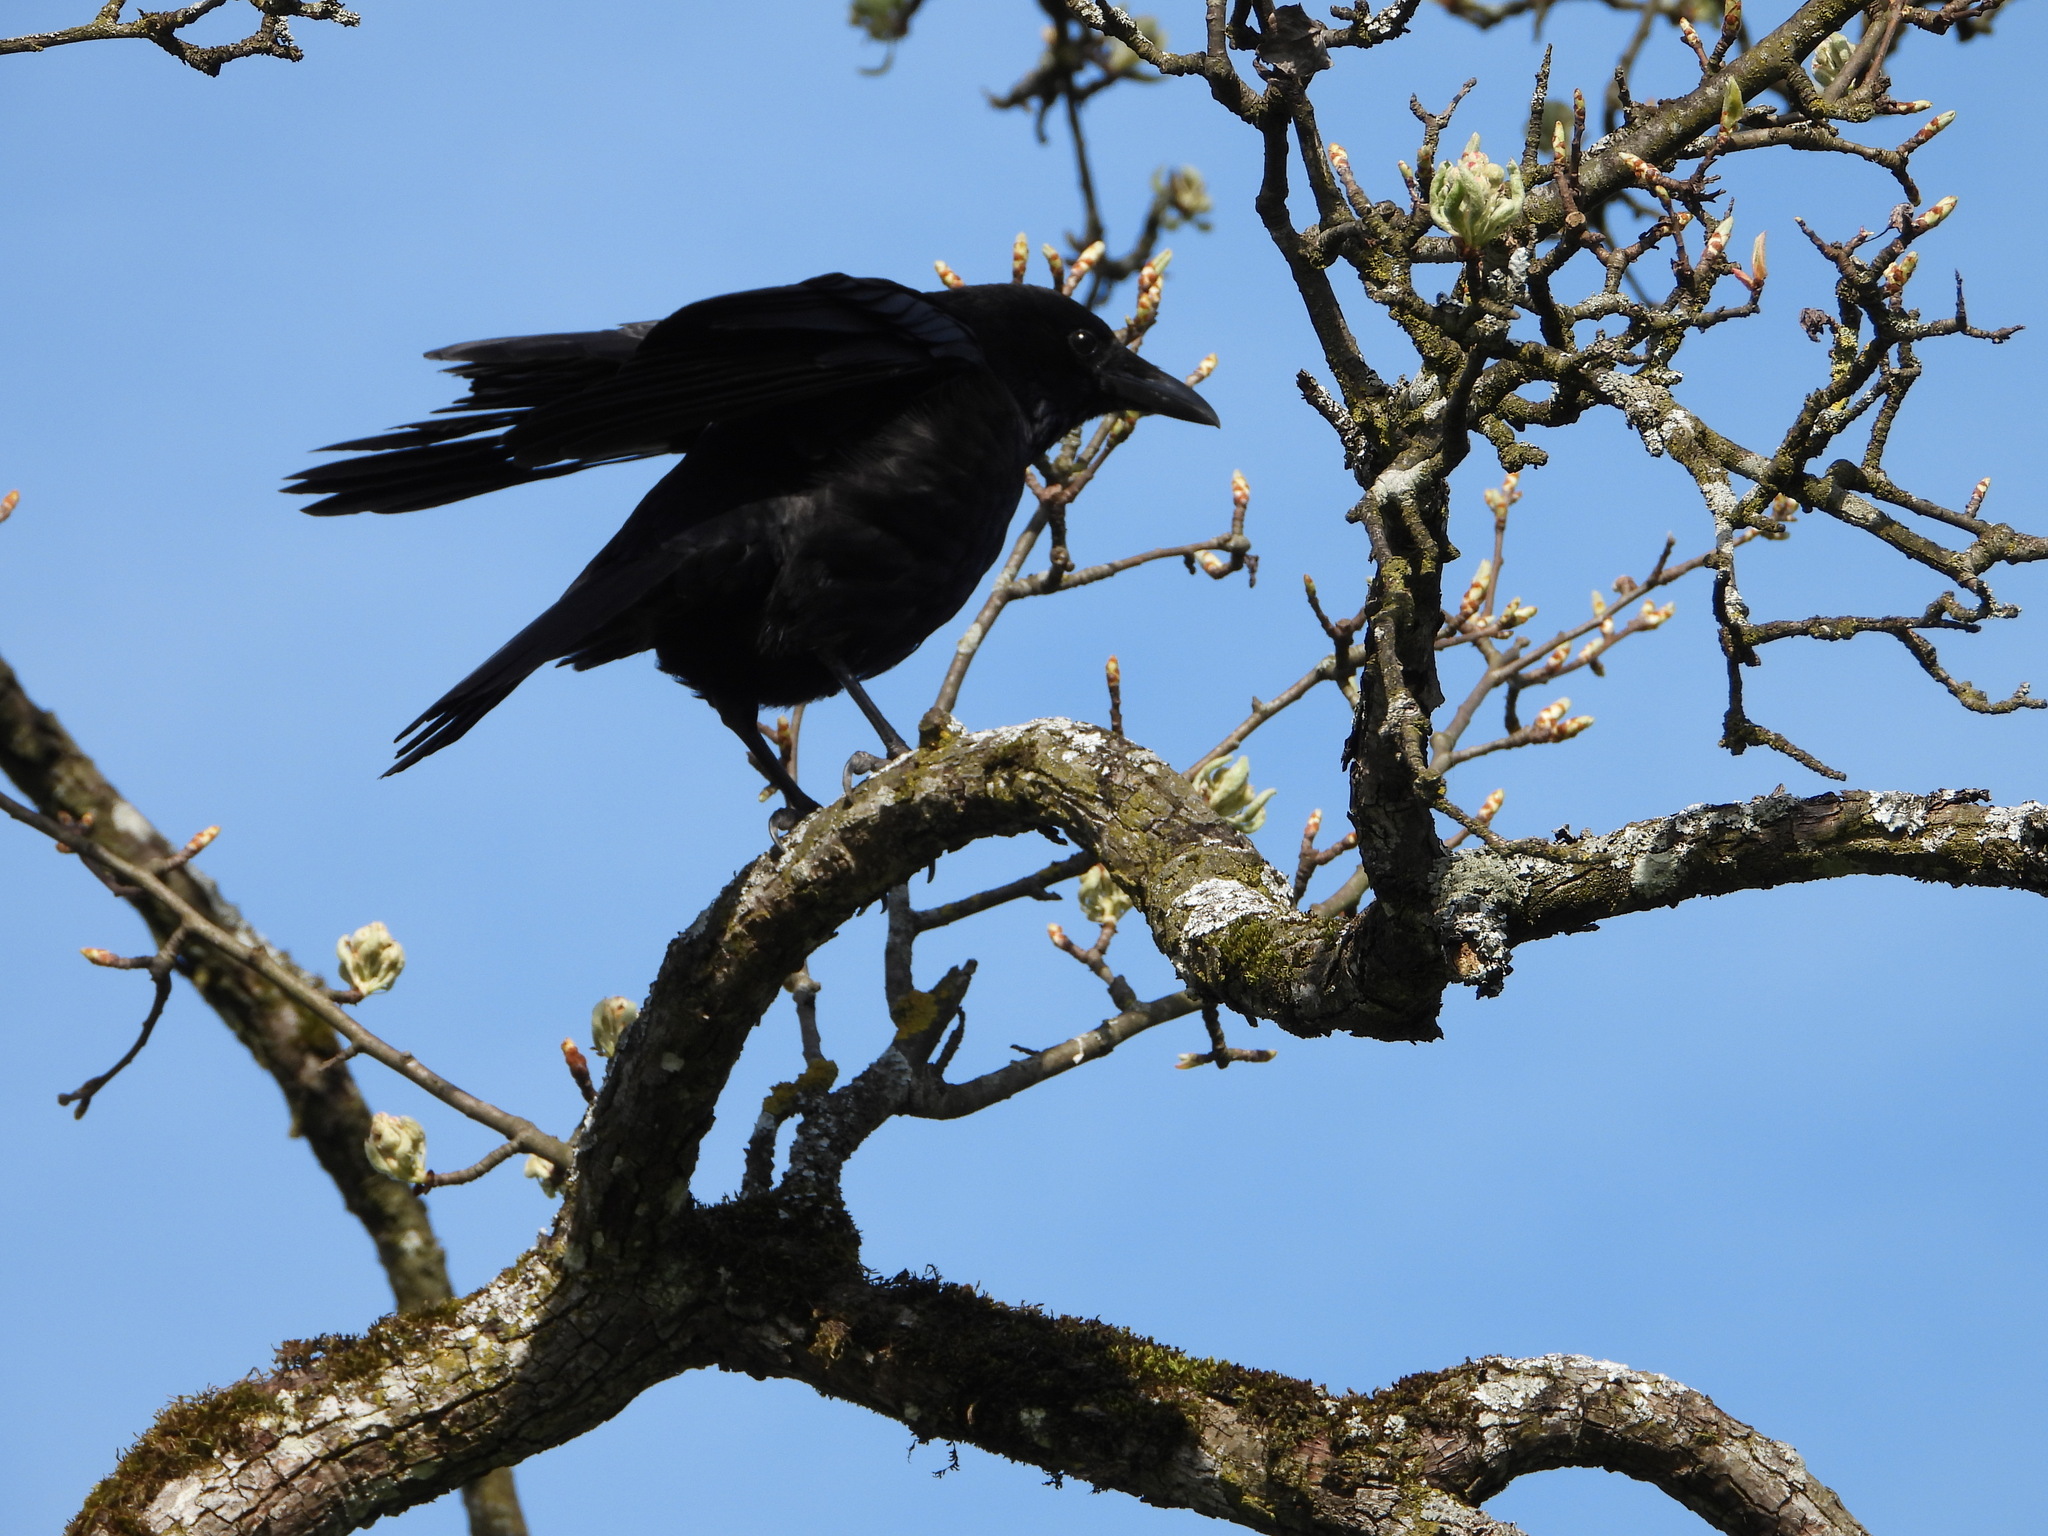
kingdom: Animalia
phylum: Chordata
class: Aves
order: Passeriformes
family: Corvidae
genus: Corvus
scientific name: Corvus corone
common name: Carrion crow
